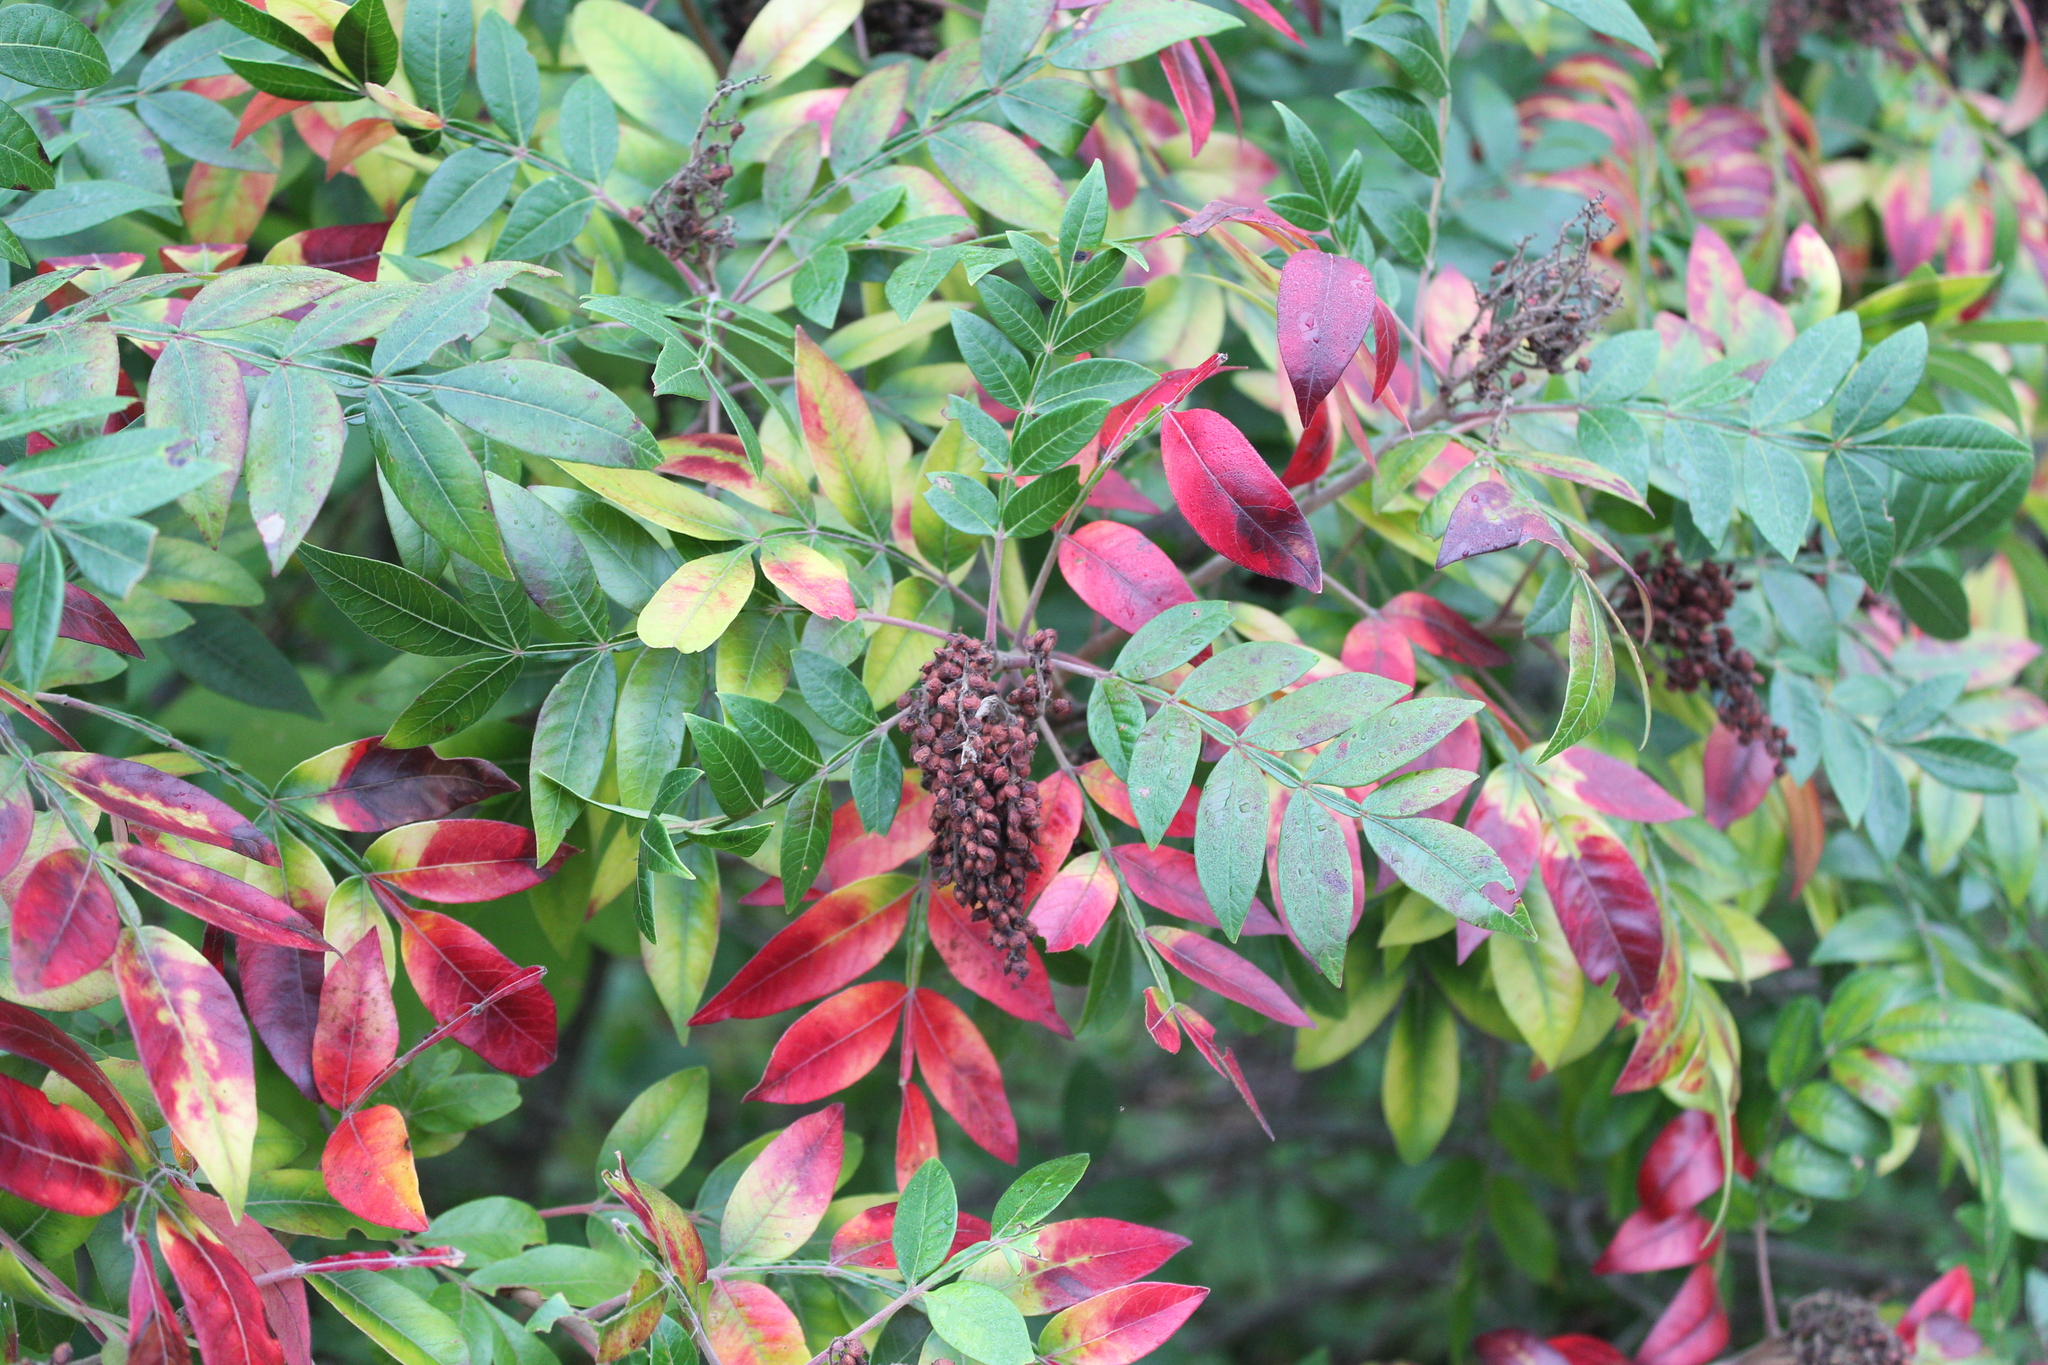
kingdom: Plantae
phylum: Tracheophyta
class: Magnoliopsida
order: Sapindales
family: Anacardiaceae
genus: Rhus
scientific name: Rhus copallina
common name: Shining sumac
